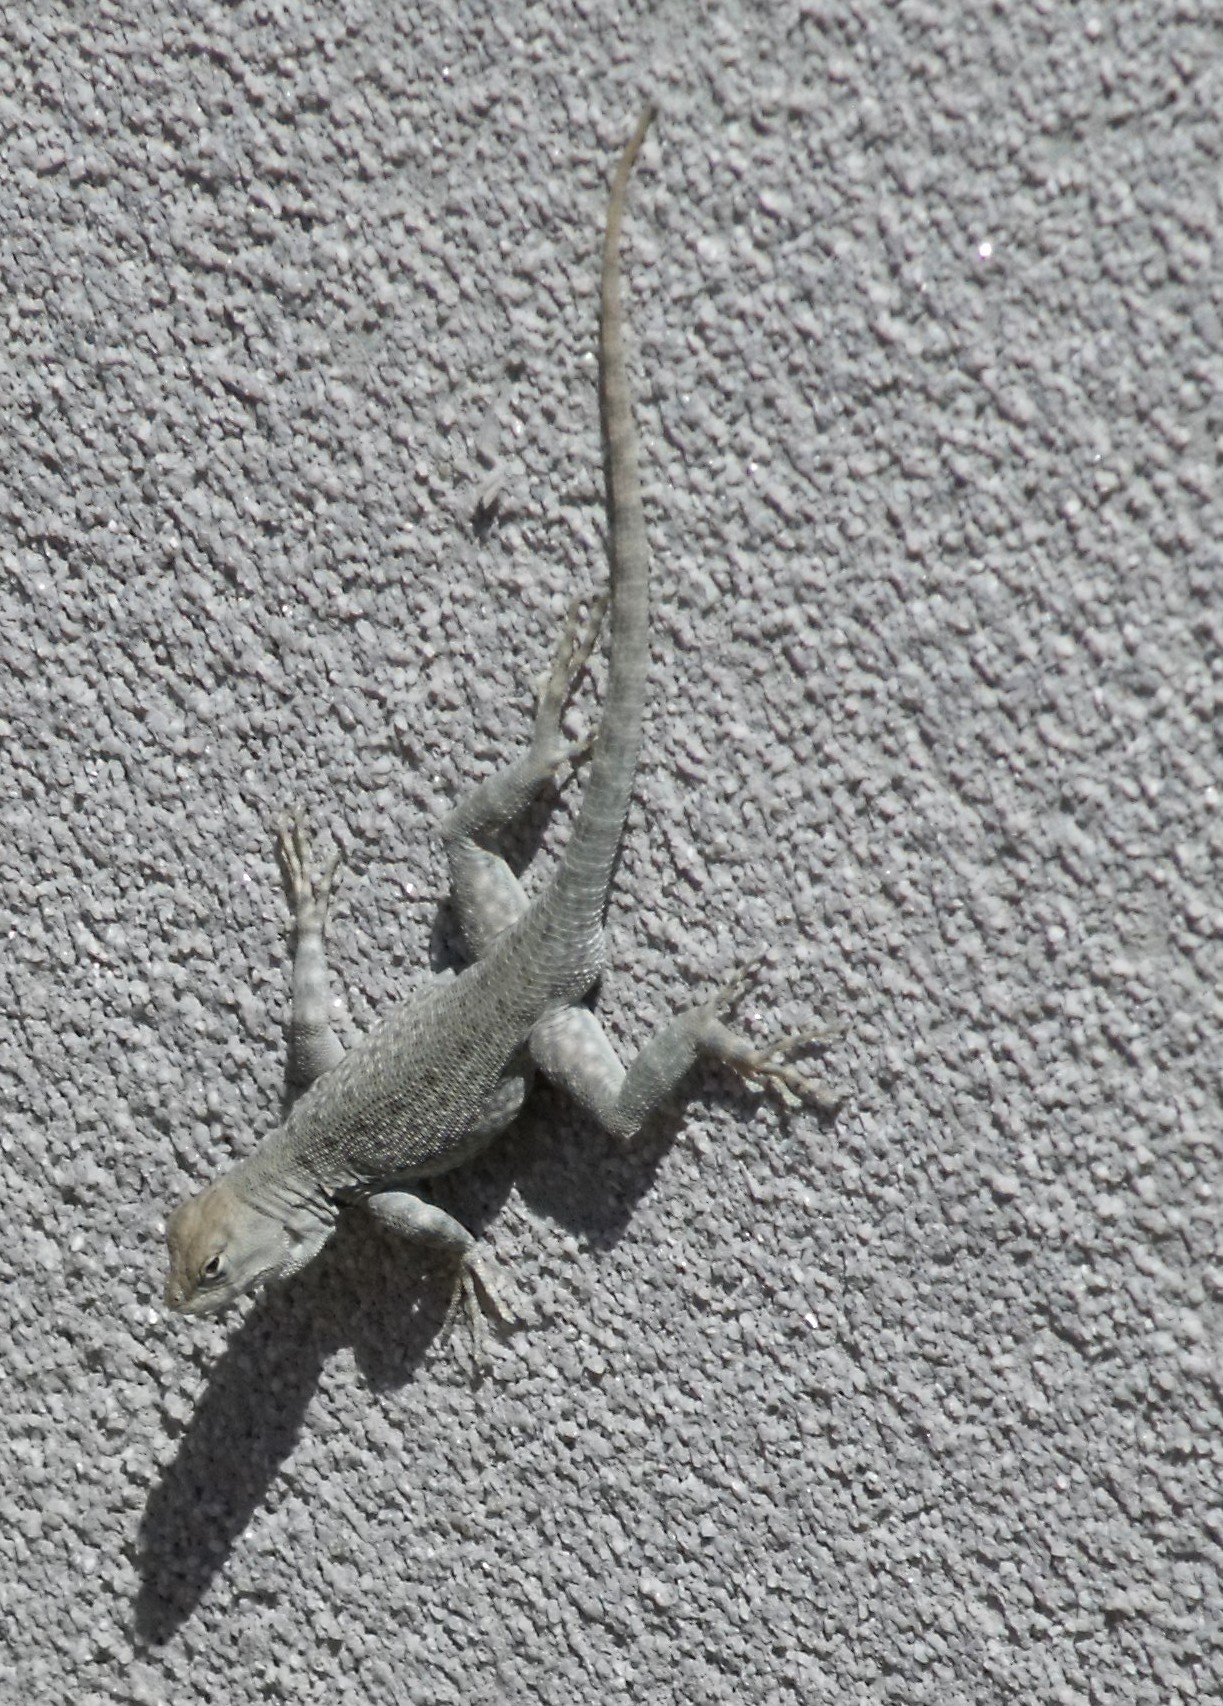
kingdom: Animalia
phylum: Chordata
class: Squamata
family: Phrynosomatidae
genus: Sceloporus
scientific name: Sceloporus merriami
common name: Canyon lizard
